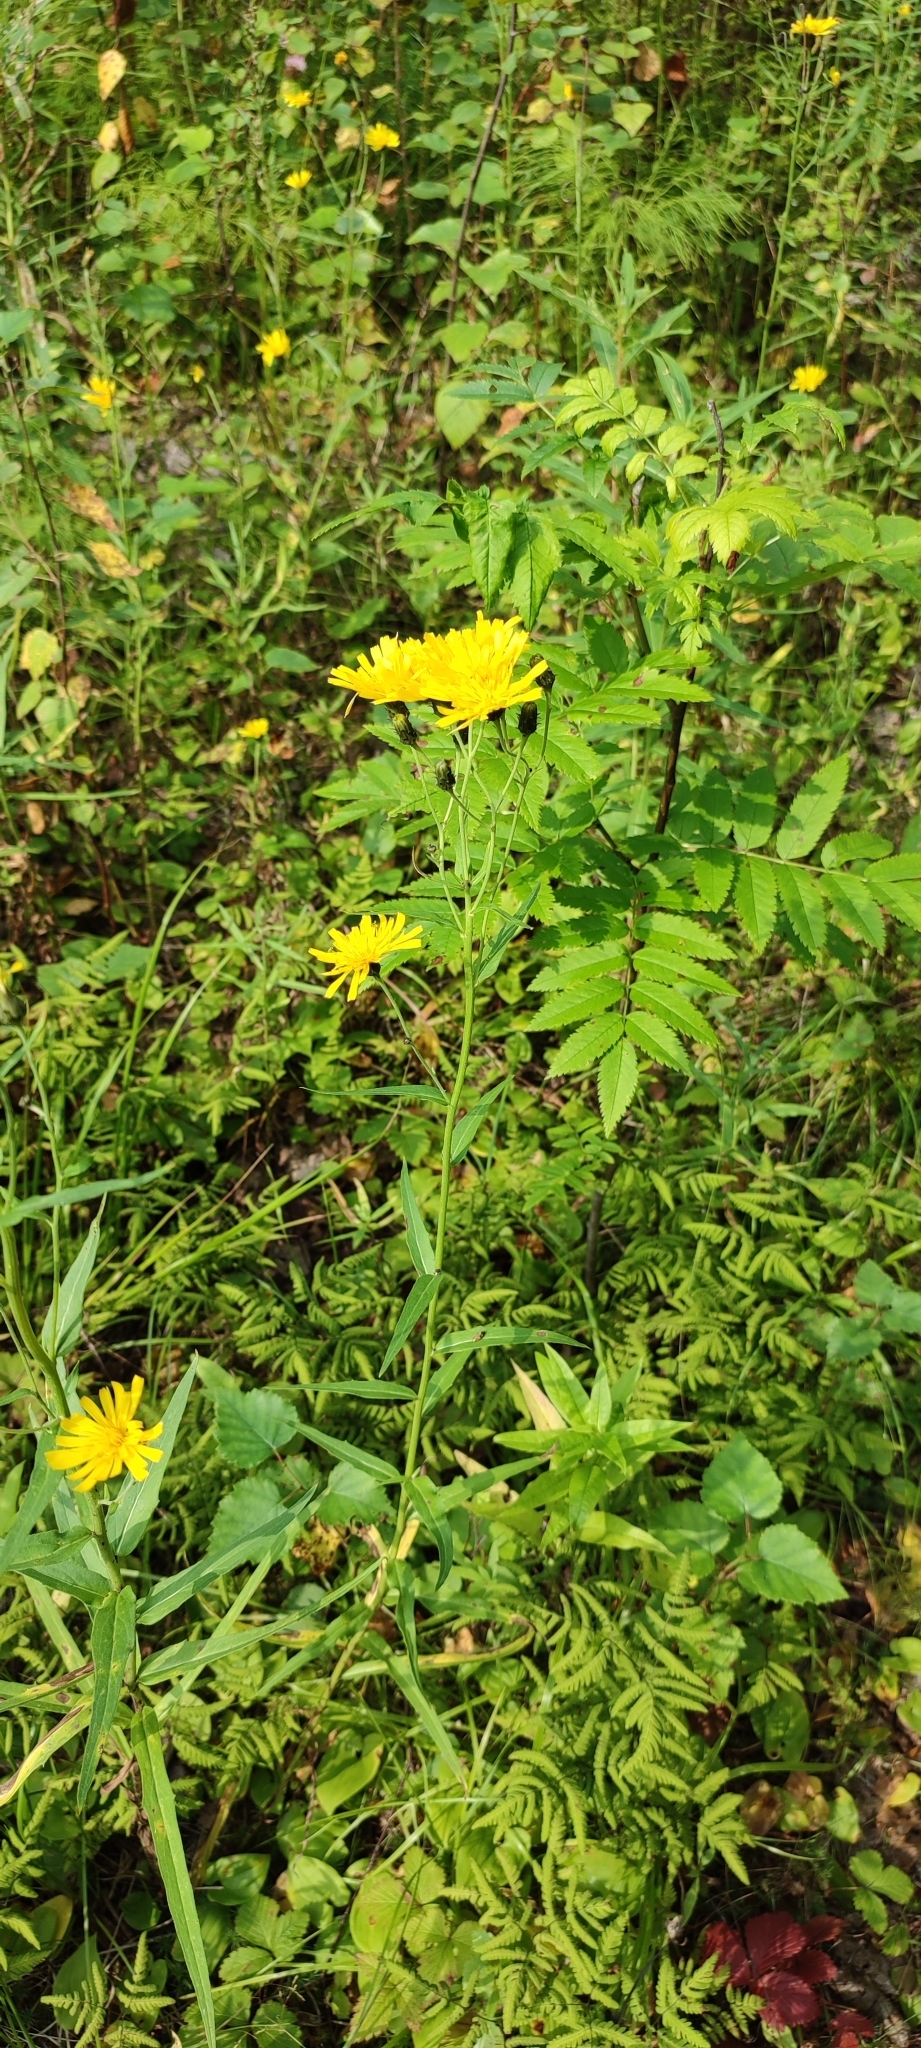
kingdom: Plantae
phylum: Tracheophyta
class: Magnoliopsida
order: Asterales
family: Asteraceae
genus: Hieracium
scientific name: Hieracium umbellatum
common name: Northern hawkweed
